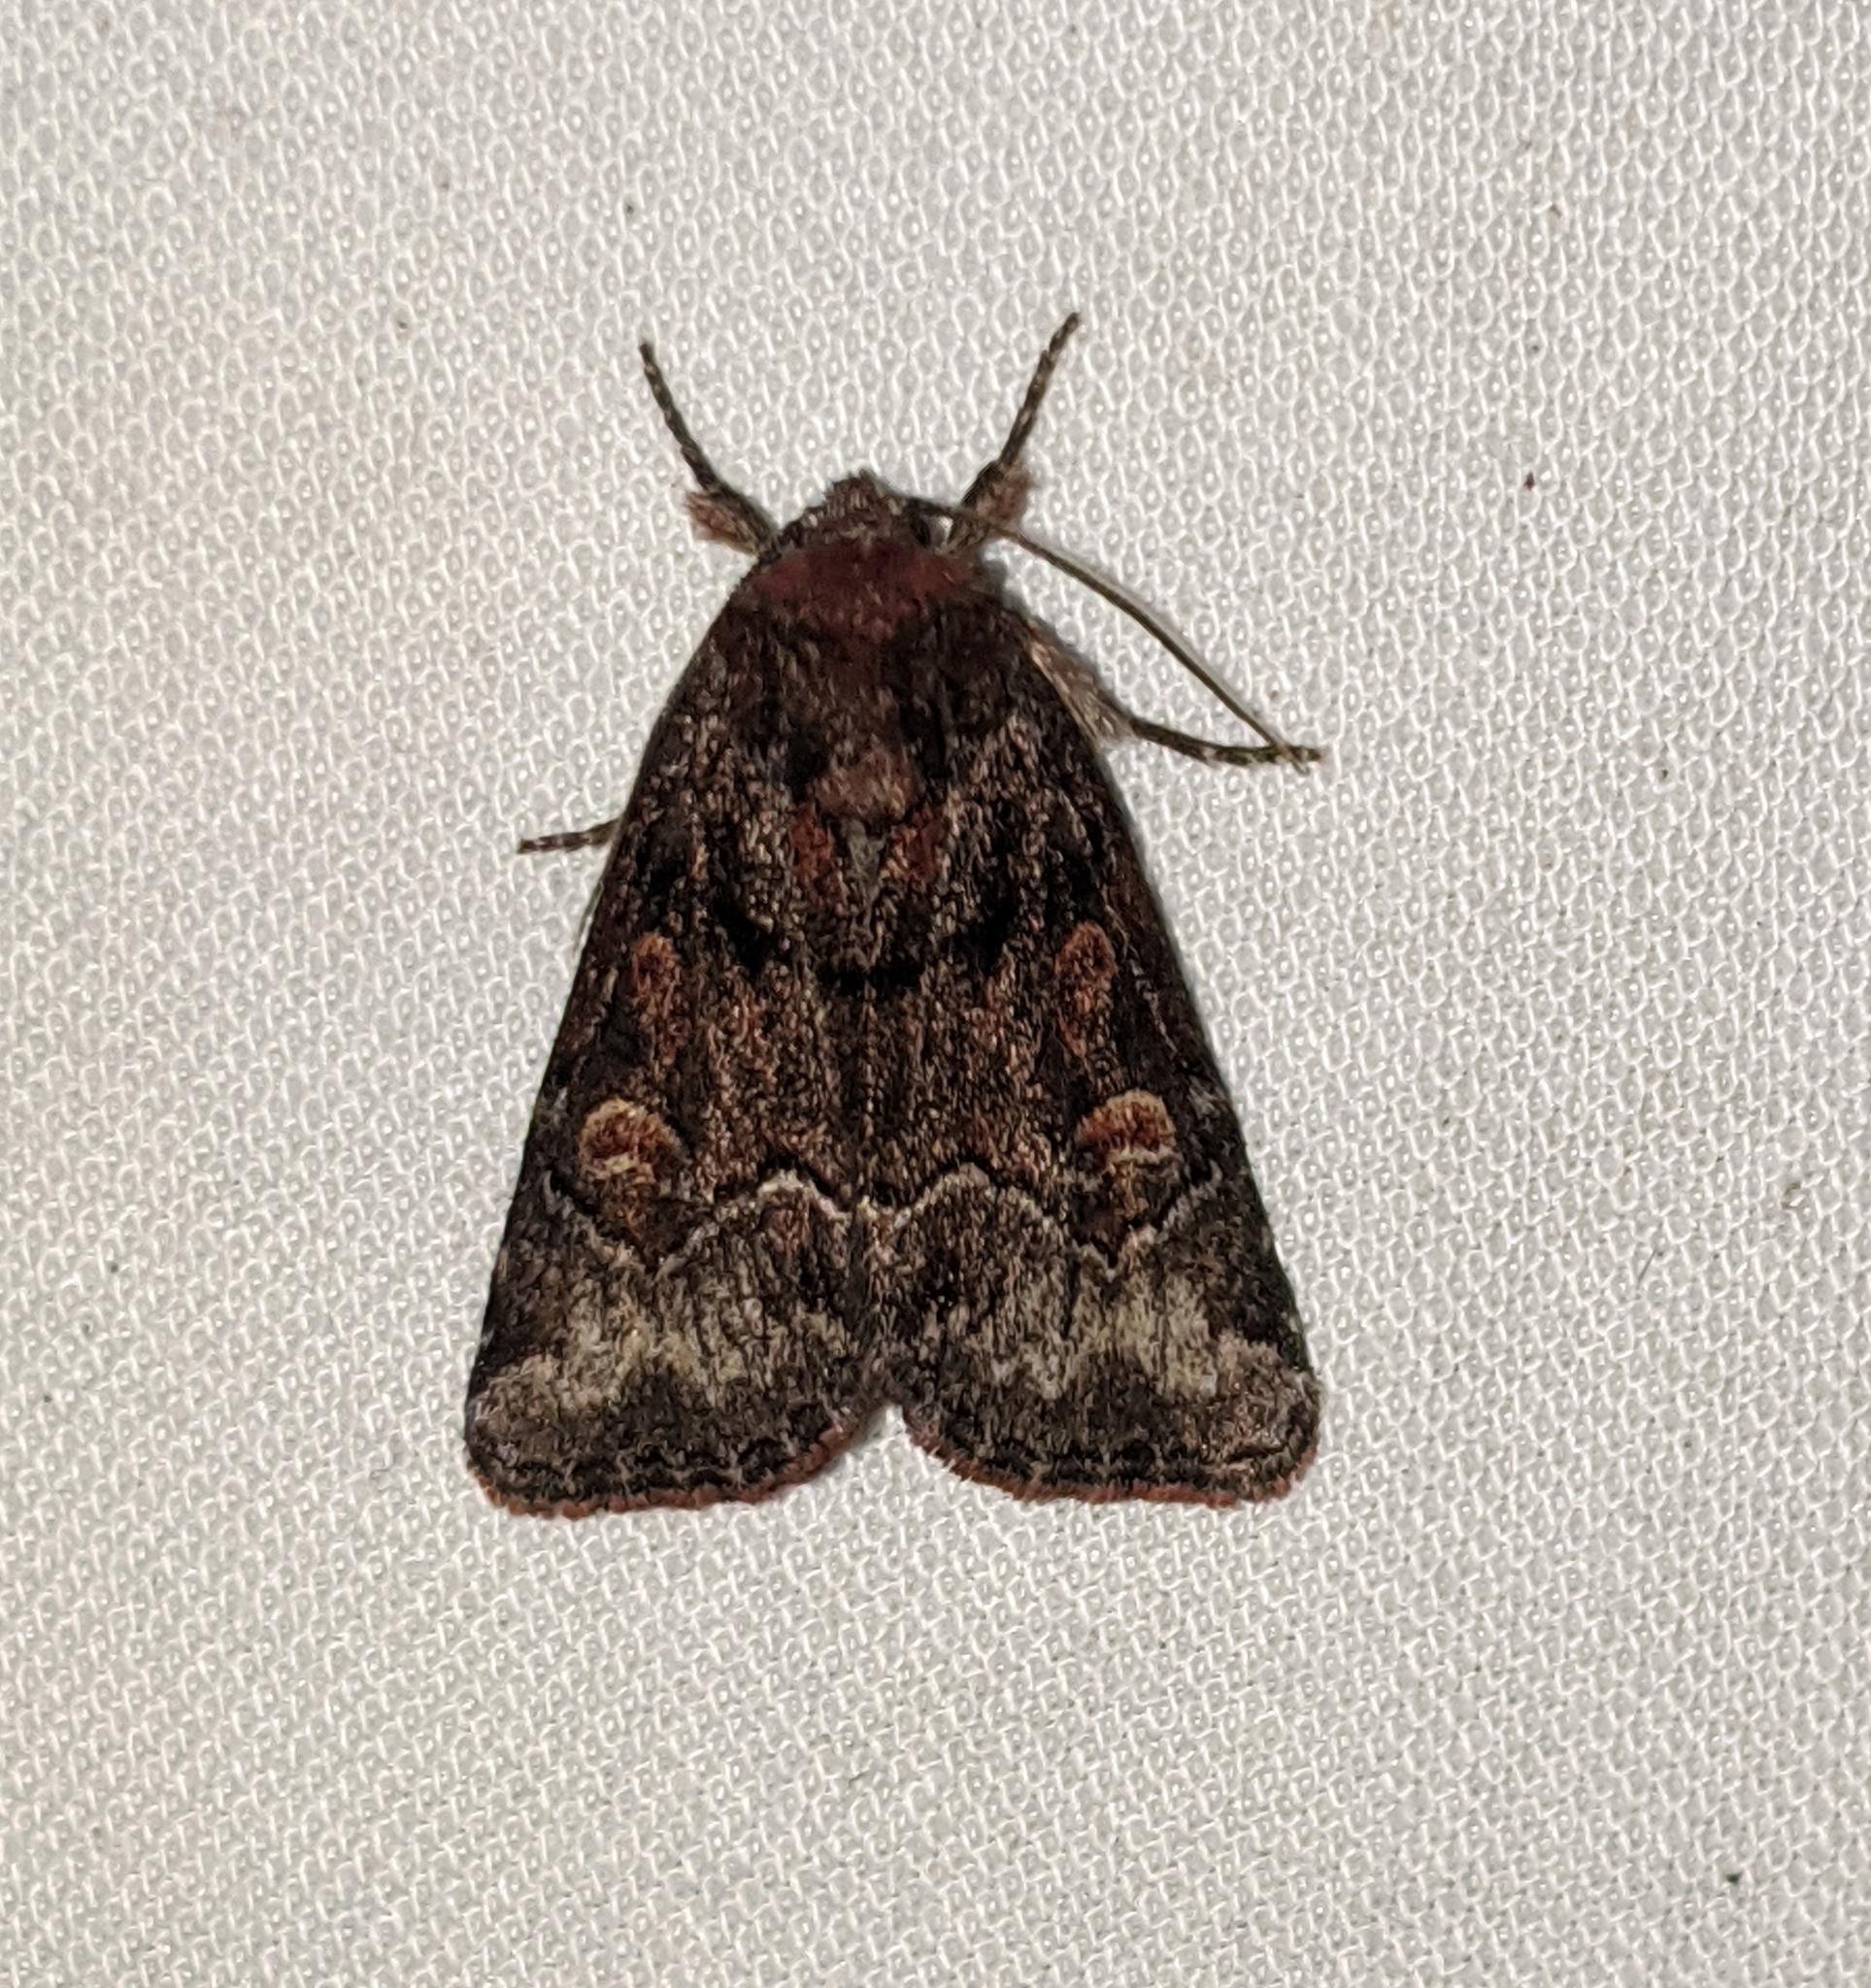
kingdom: Animalia
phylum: Arthropoda
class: Insecta
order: Lepidoptera
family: Noctuidae
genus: Cosmia
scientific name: Cosmia praeacuta
